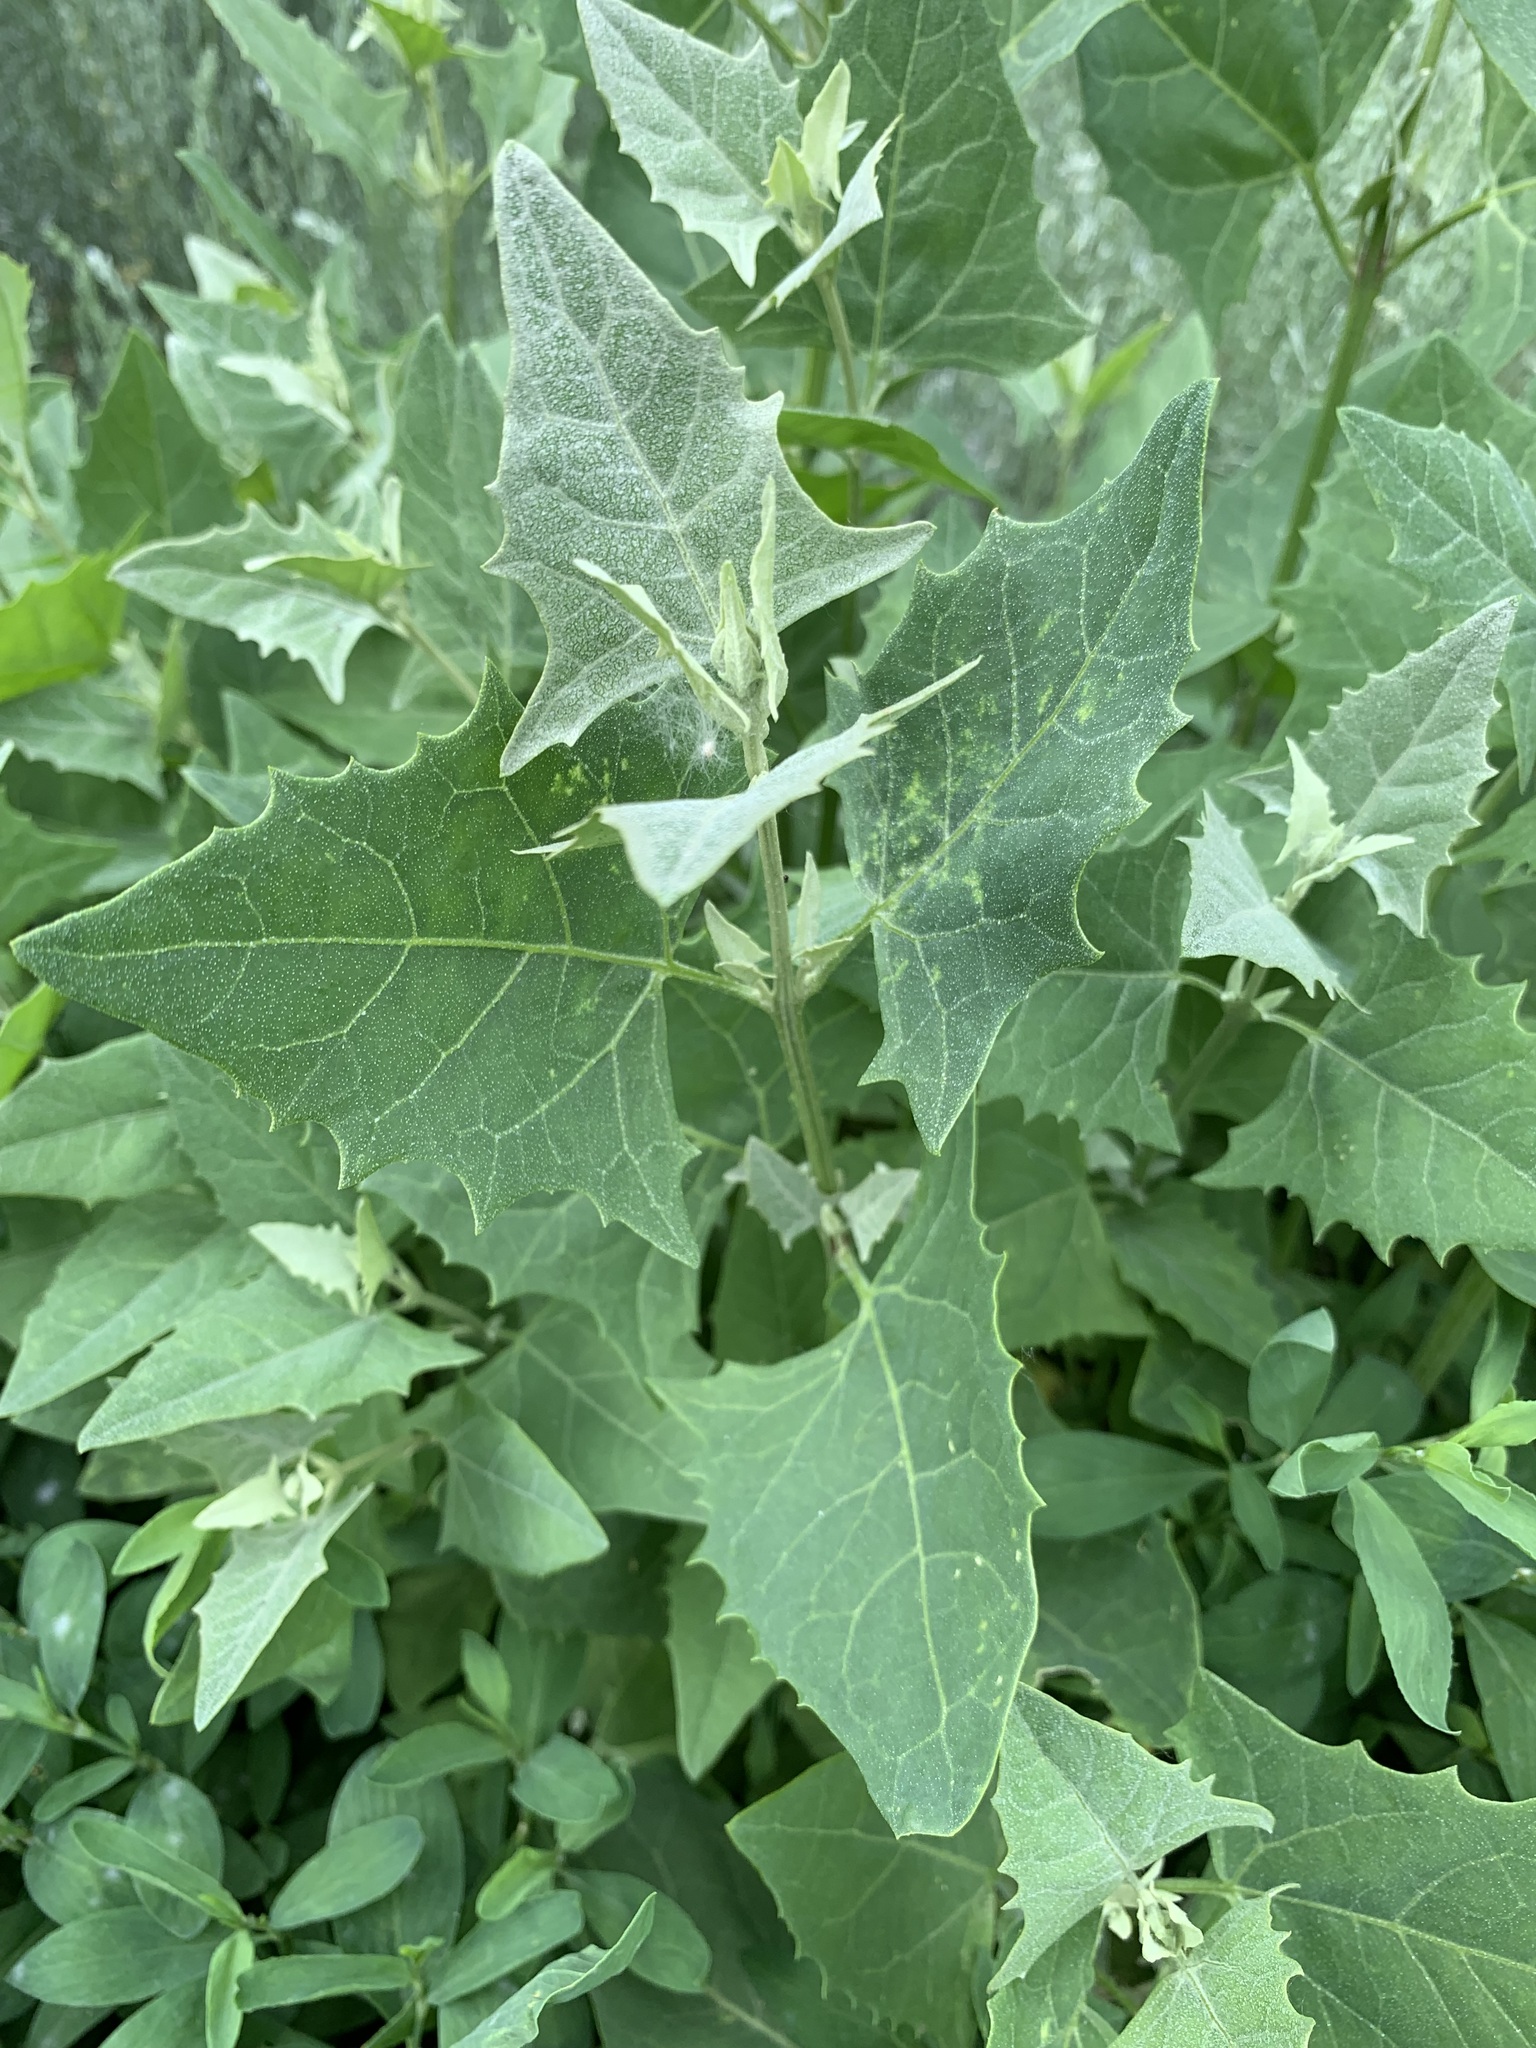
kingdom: Plantae
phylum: Tracheophyta
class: Magnoliopsida
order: Caryophyllales
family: Amaranthaceae
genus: Atriplex
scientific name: Atriplex prostrata
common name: Spear-leaved orache
